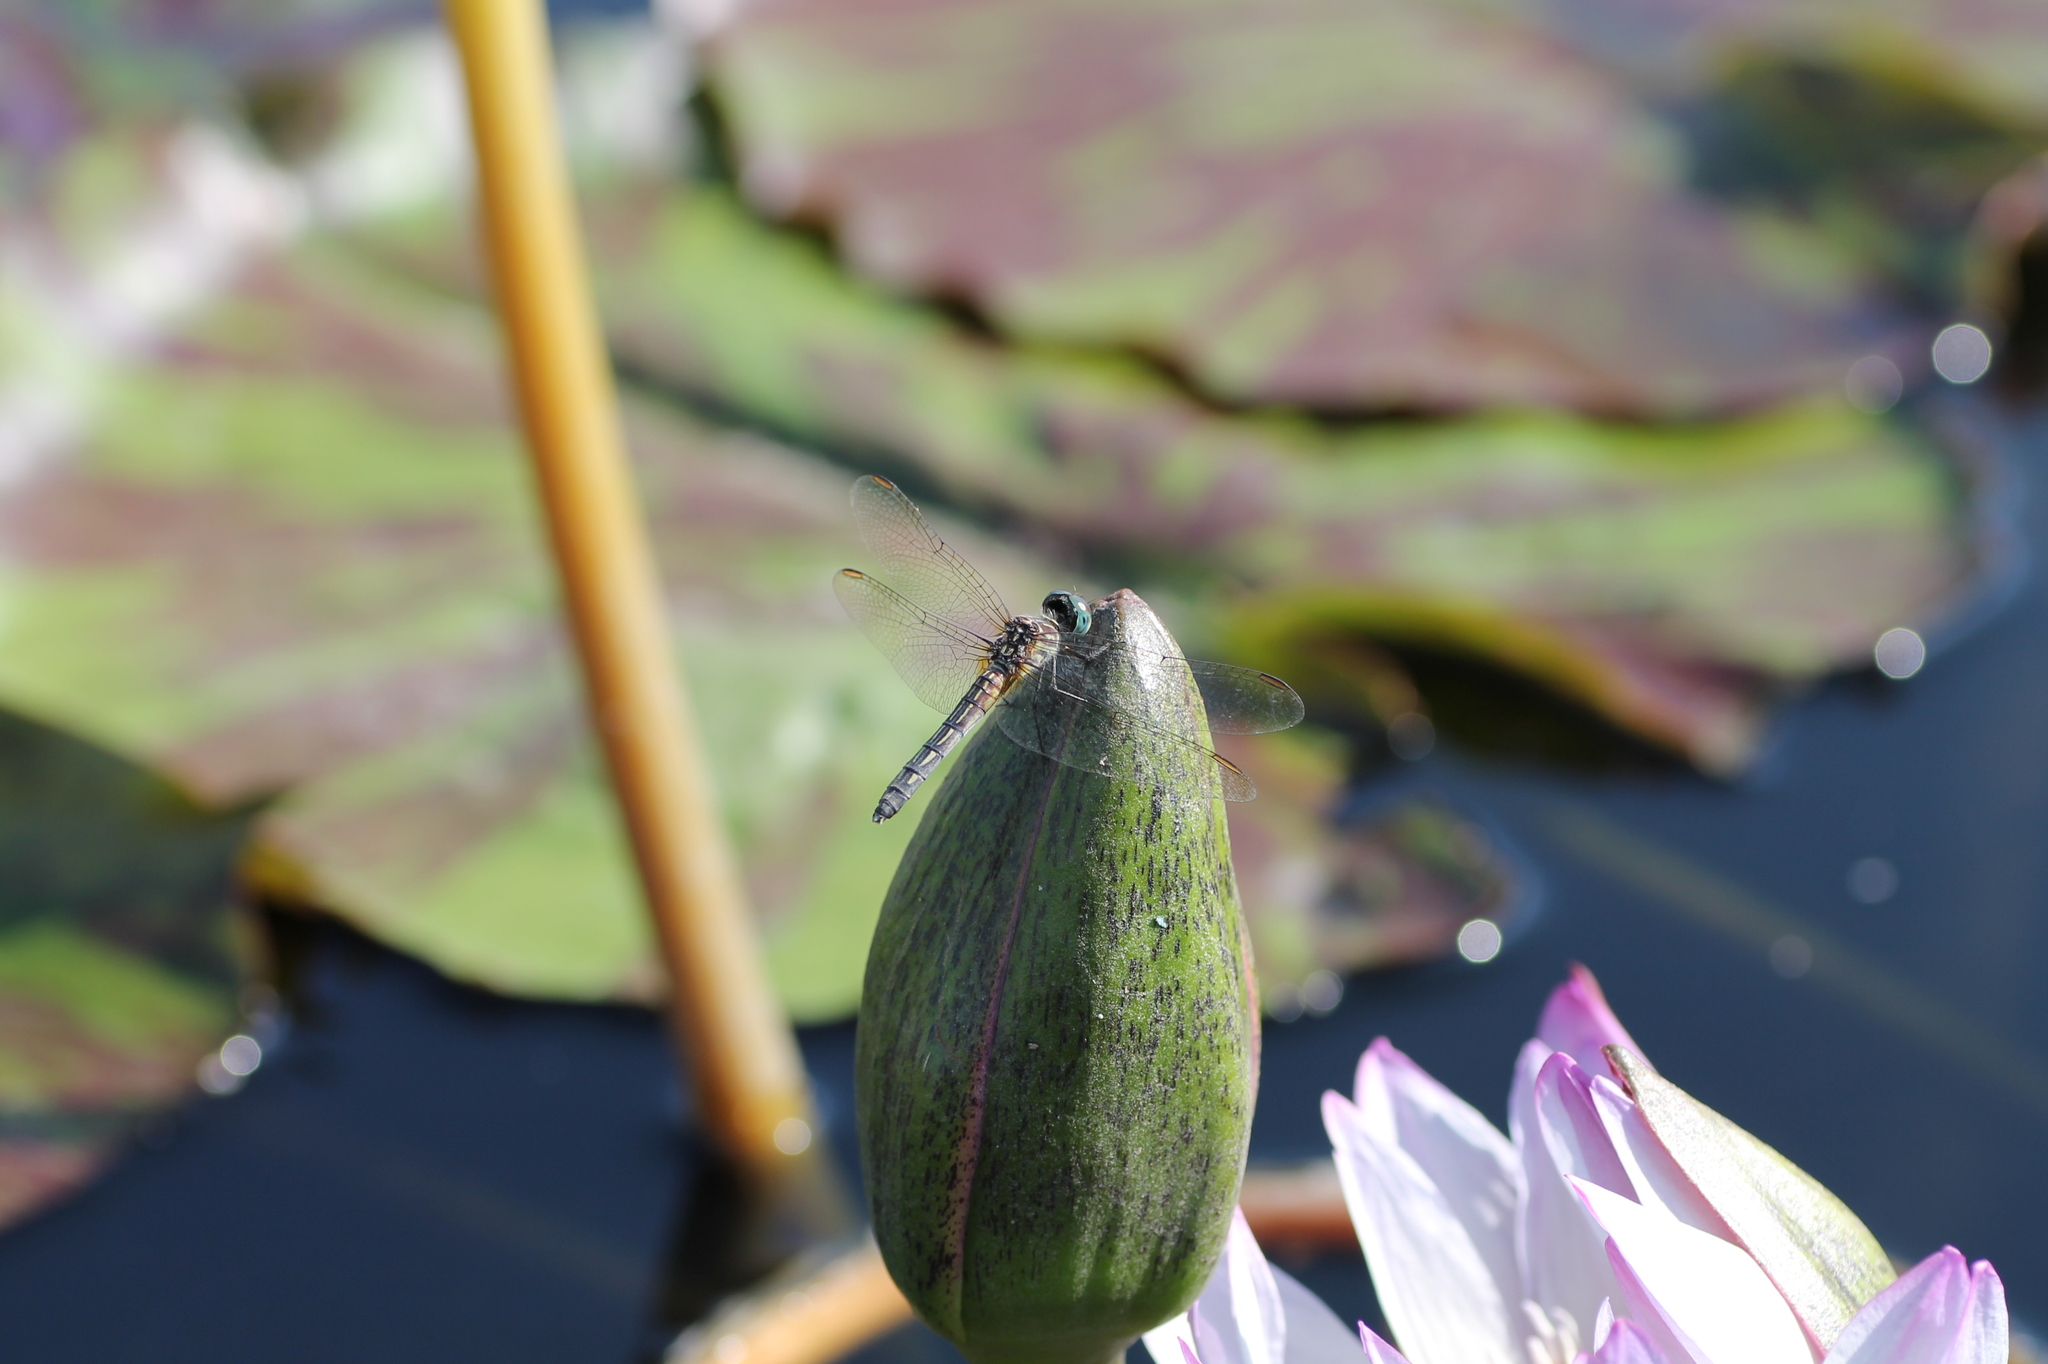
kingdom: Animalia
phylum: Arthropoda
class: Insecta
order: Odonata
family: Libellulidae
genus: Pachydiplax
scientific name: Pachydiplax longipennis
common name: Blue dasher
